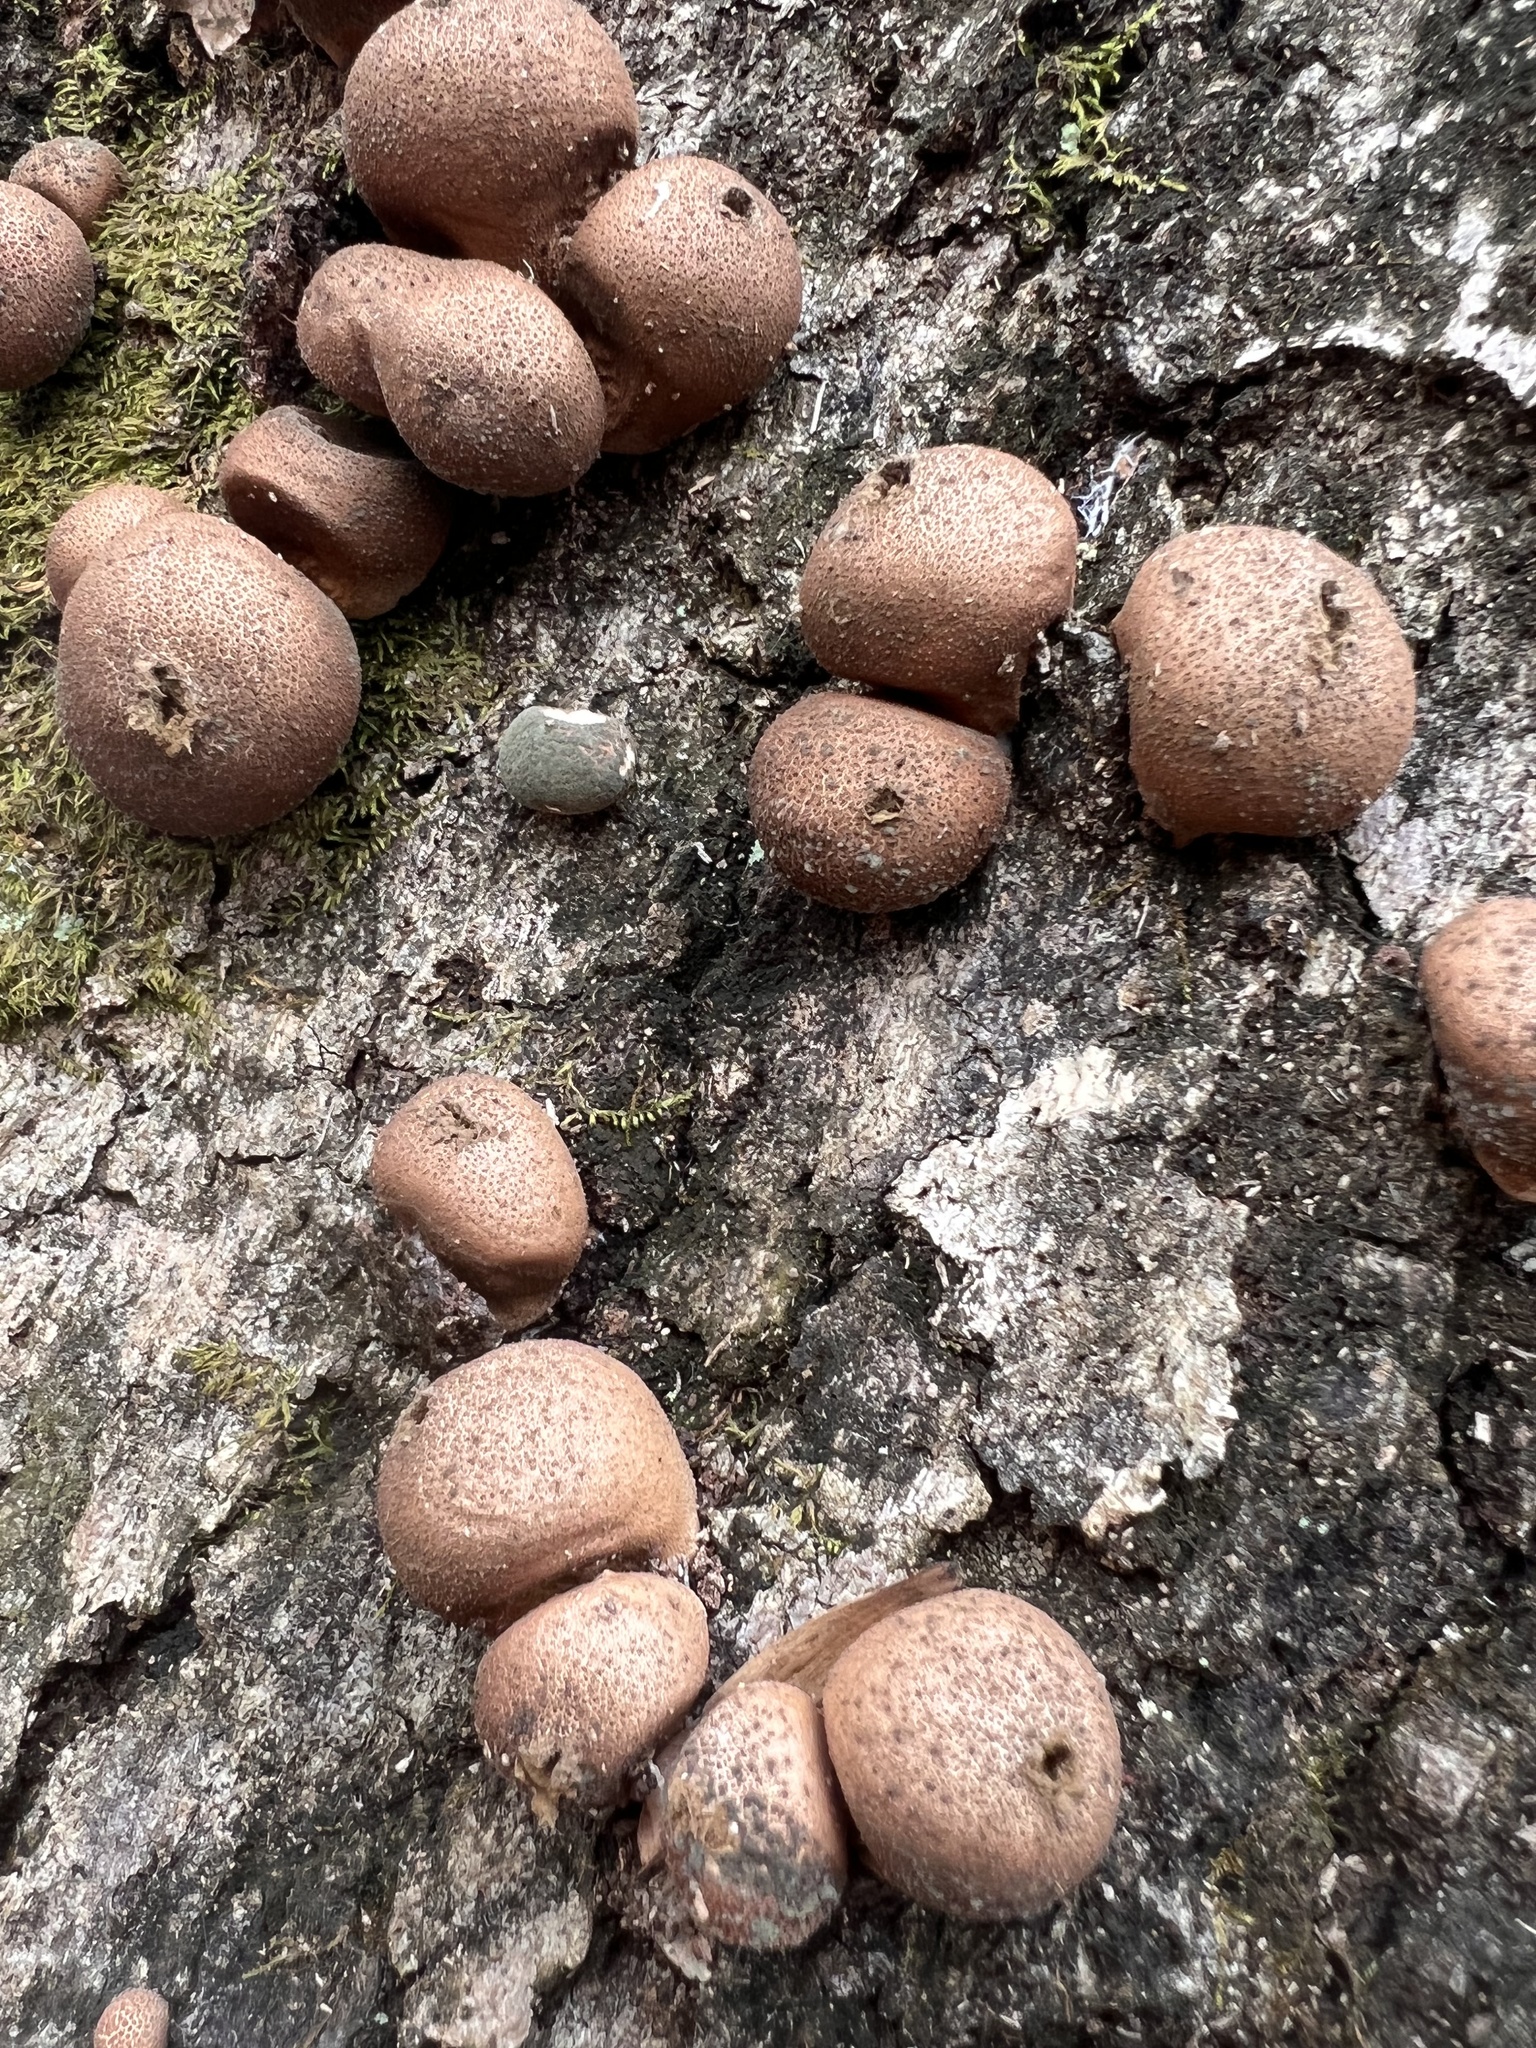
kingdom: Fungi
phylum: Basidiomycota
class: Agaricomycetes
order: Agaricales
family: Lycoperdaceae
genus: Apioperdon
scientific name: Apioperdon pyriforme
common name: Pear-shaped puffball
